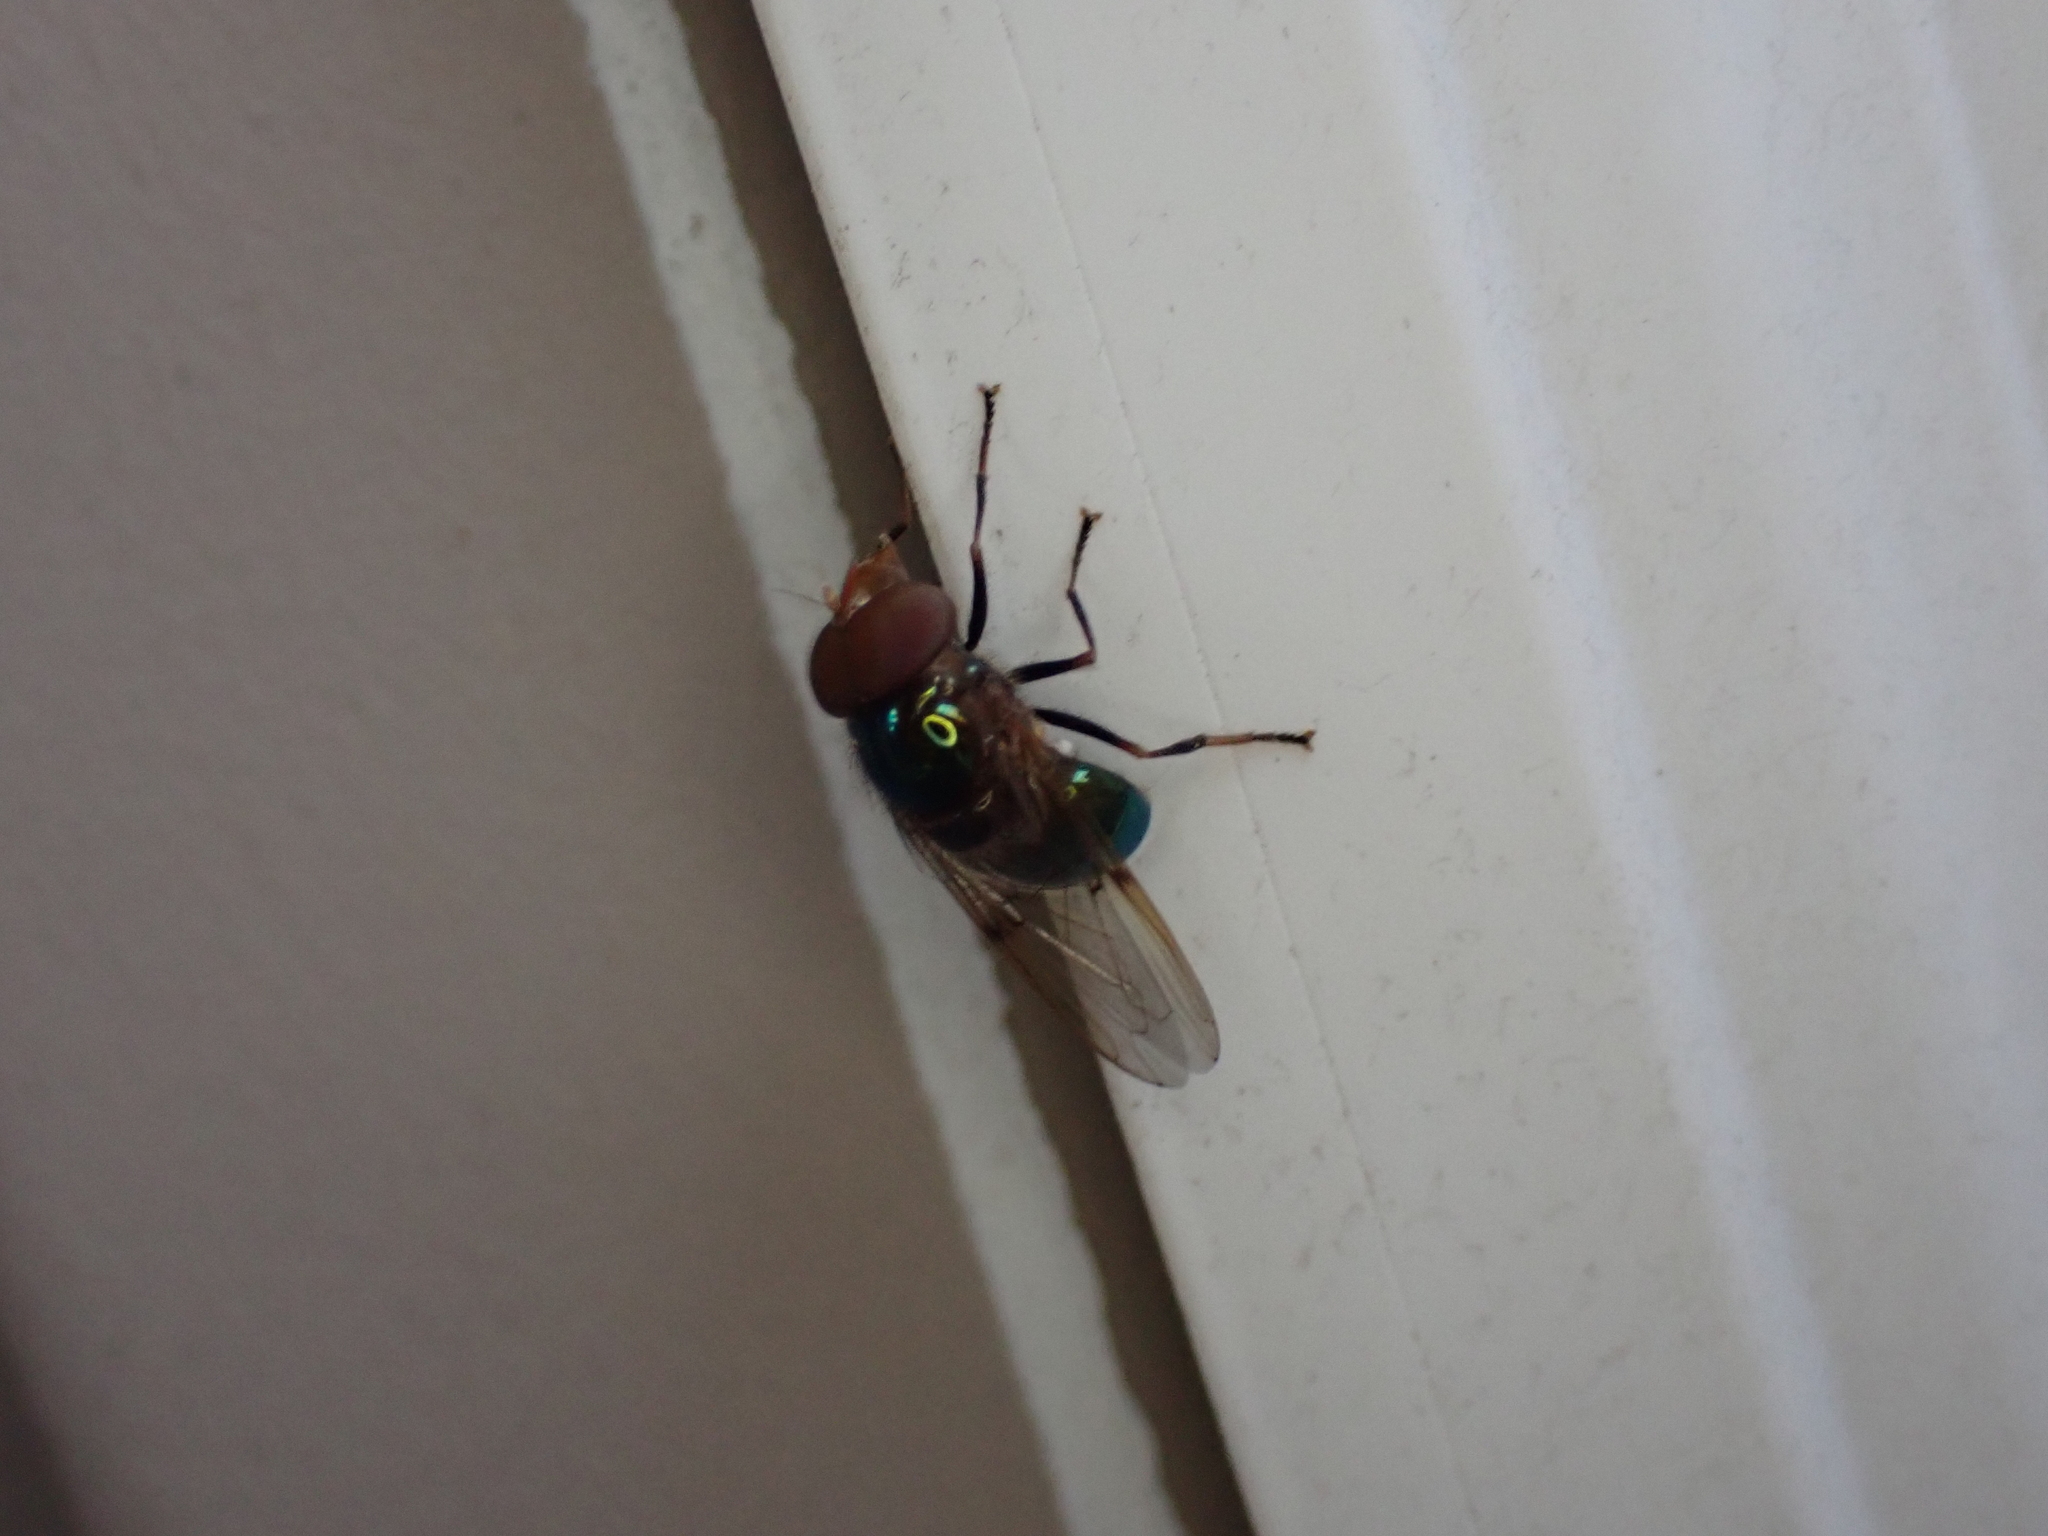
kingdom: Animalia
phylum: Arthropoda
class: Insecta
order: Diptera
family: Syrphidae
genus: Copestylum
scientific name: Copestylum vesicularium
